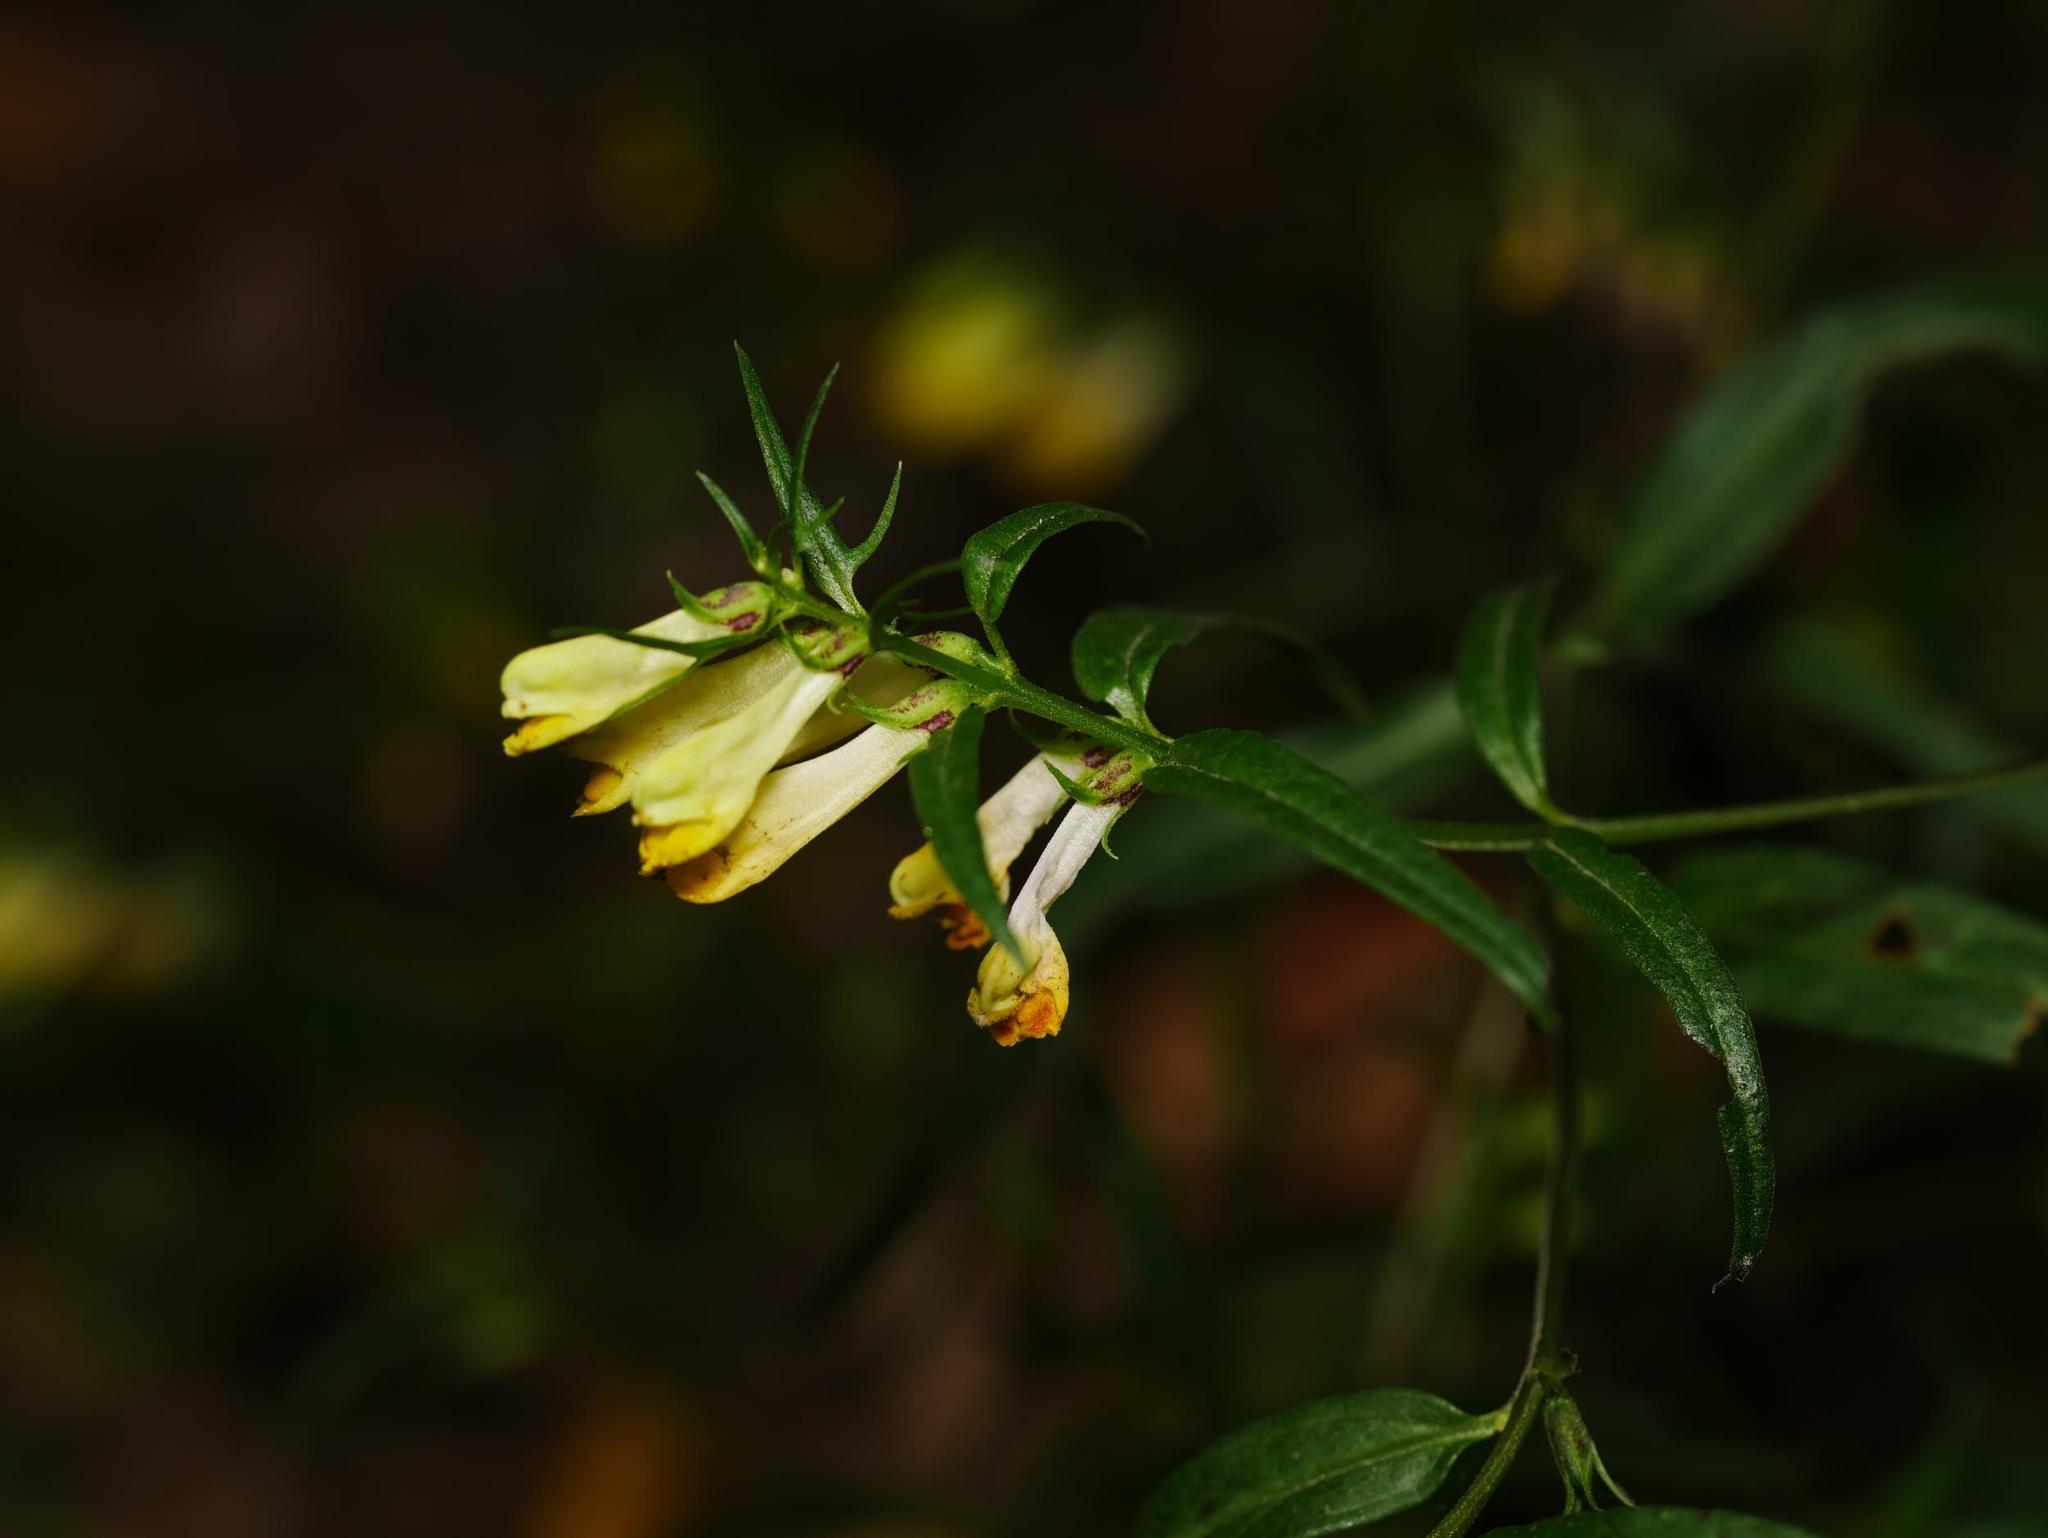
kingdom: Plantae
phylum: Tracheophyta
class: Magnoliopsida
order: Lamiales
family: Orobanchaceae
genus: Melampyrum
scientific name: Melampyrum pratense
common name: Common cow-wheat
